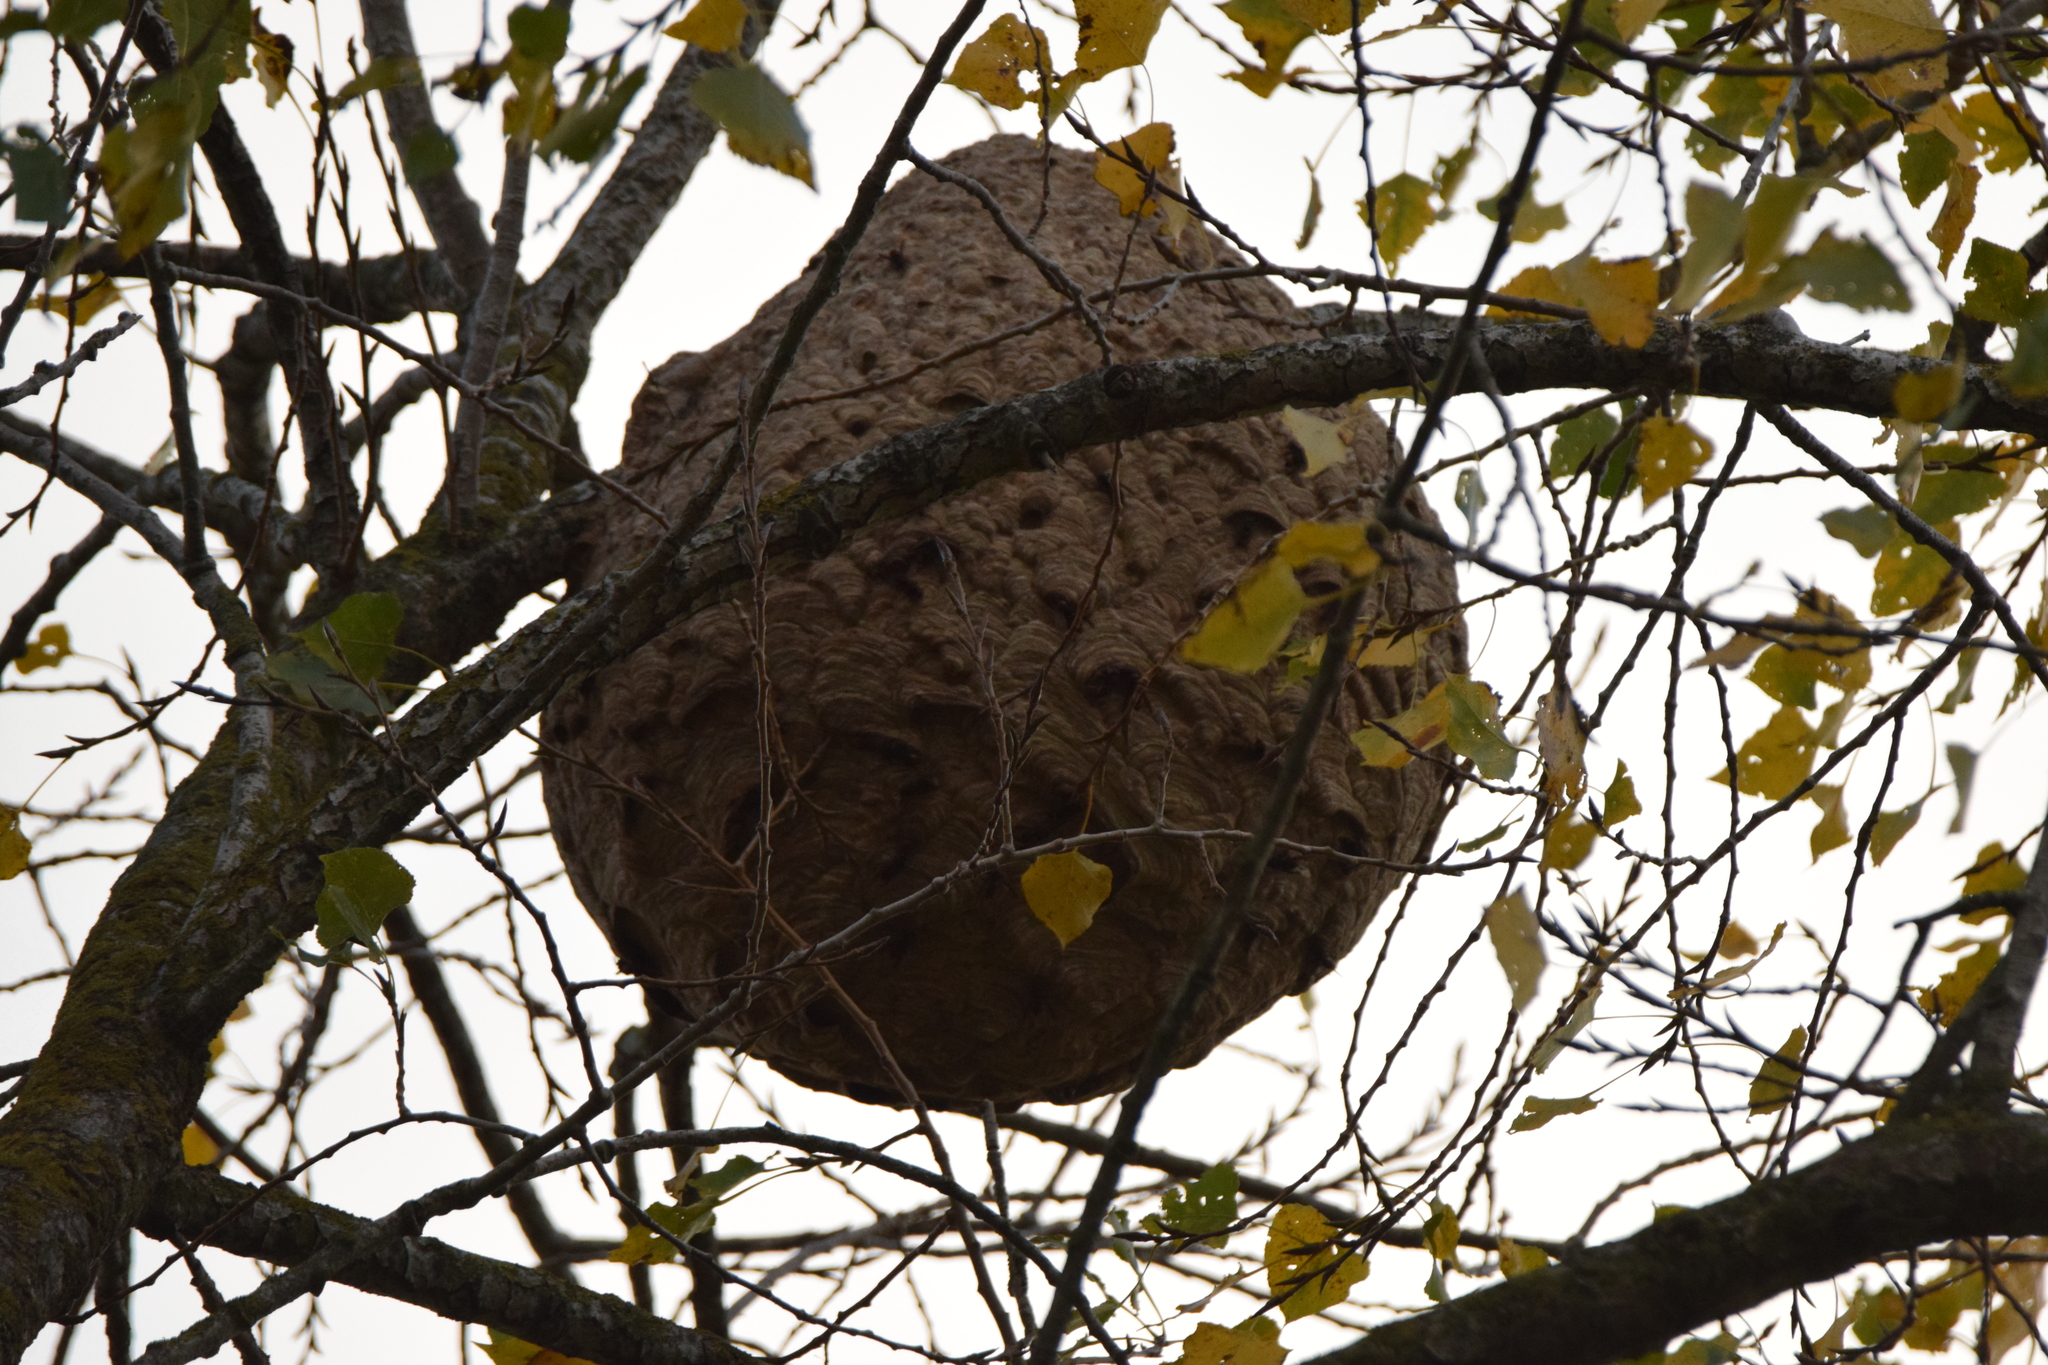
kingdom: Animalia
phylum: Arthropoda
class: Insecta
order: Hymenoptera
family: Vespidae
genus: Vespa
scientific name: Vespa velutina
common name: Asian hornet
